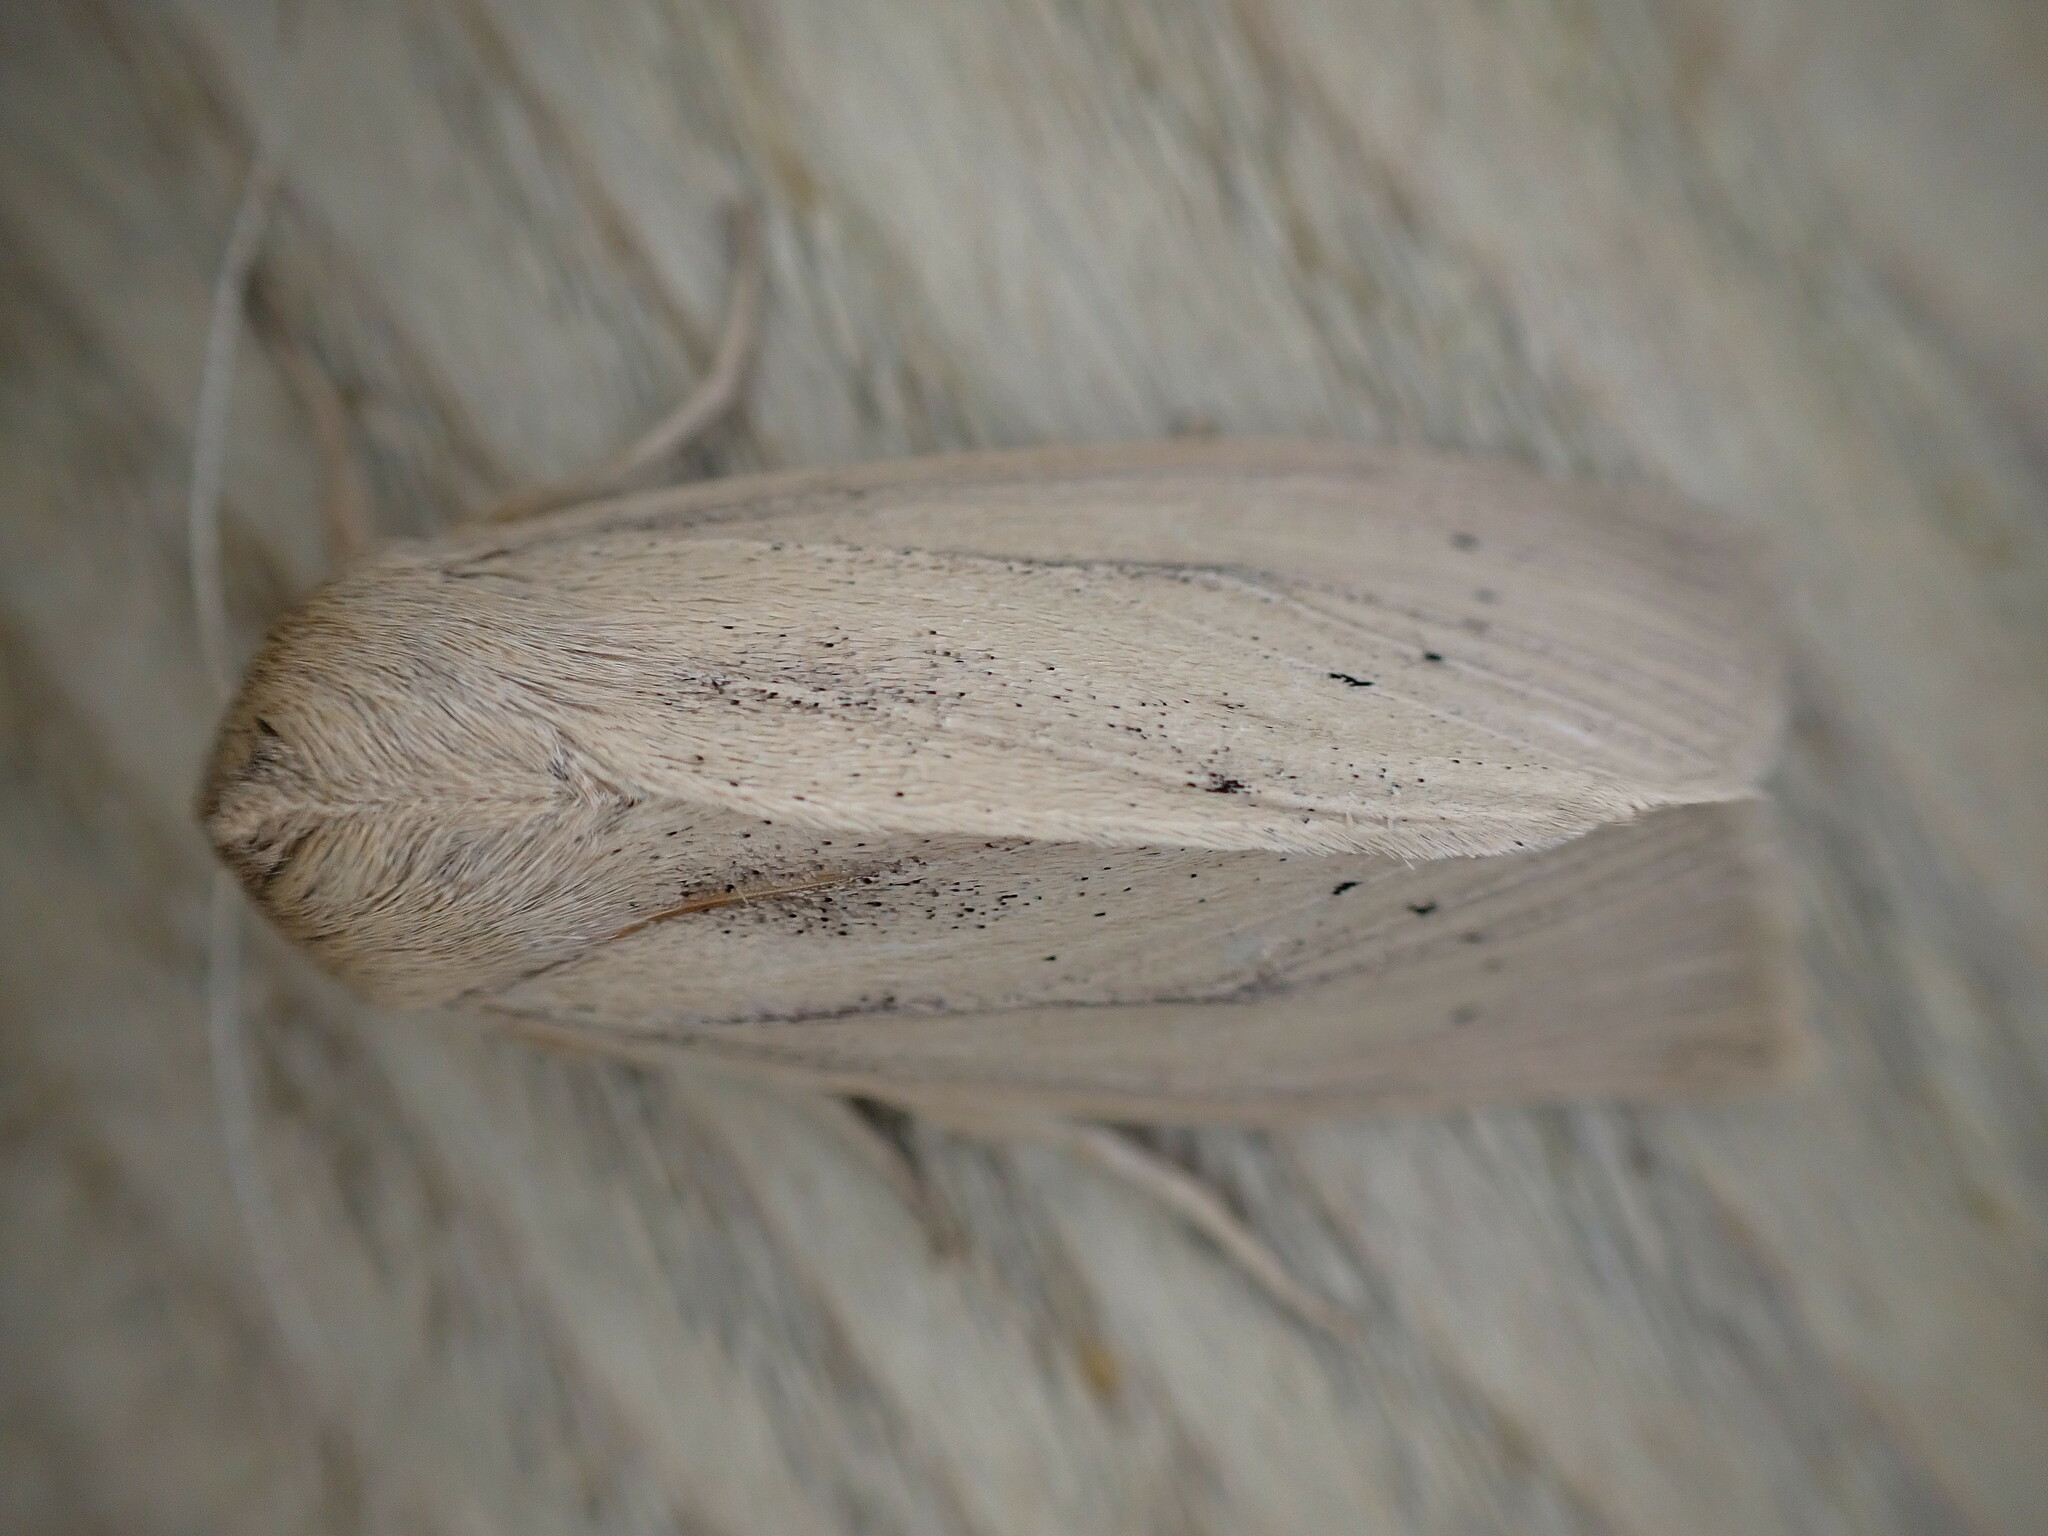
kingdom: Animalia
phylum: Arthropoda
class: Insecta
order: Lepidoptera
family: Noctuidae
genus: Rhizedra
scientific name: Rhizedra lutosa
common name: Large wainscot
